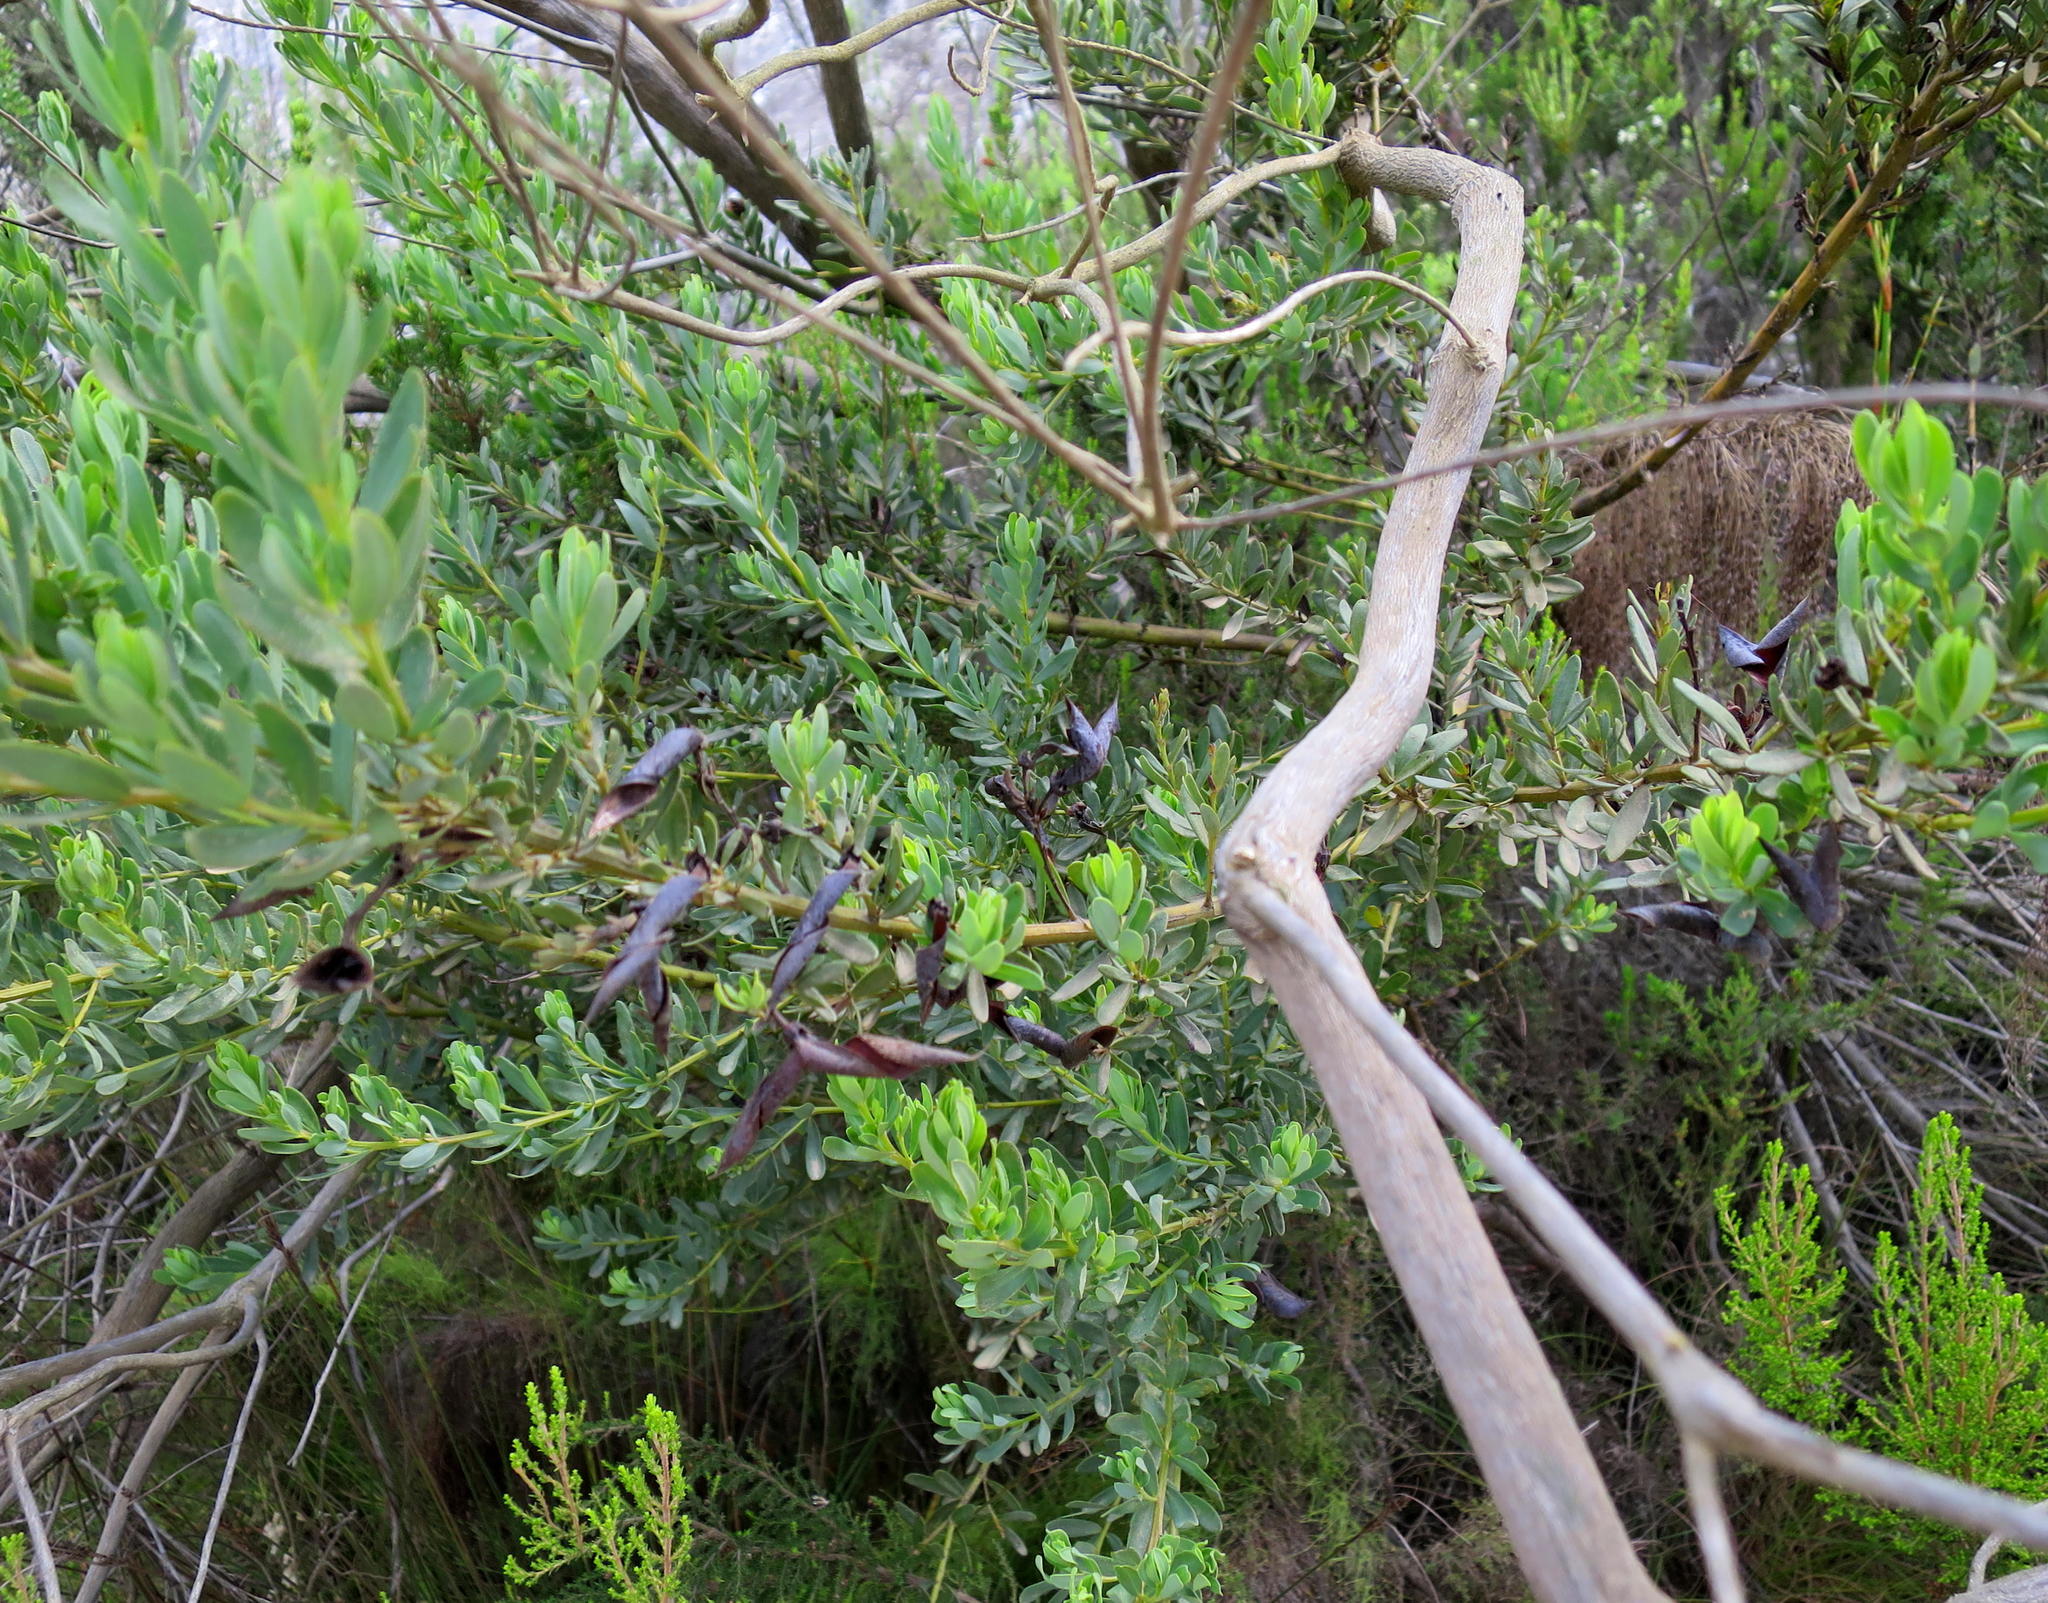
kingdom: Plantae
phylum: Tracheophyta
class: Magnoliopsida
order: Fabales
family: Fabaceae
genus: Cyclopia
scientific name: Cyclopia subternata
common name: Honeybush tea
